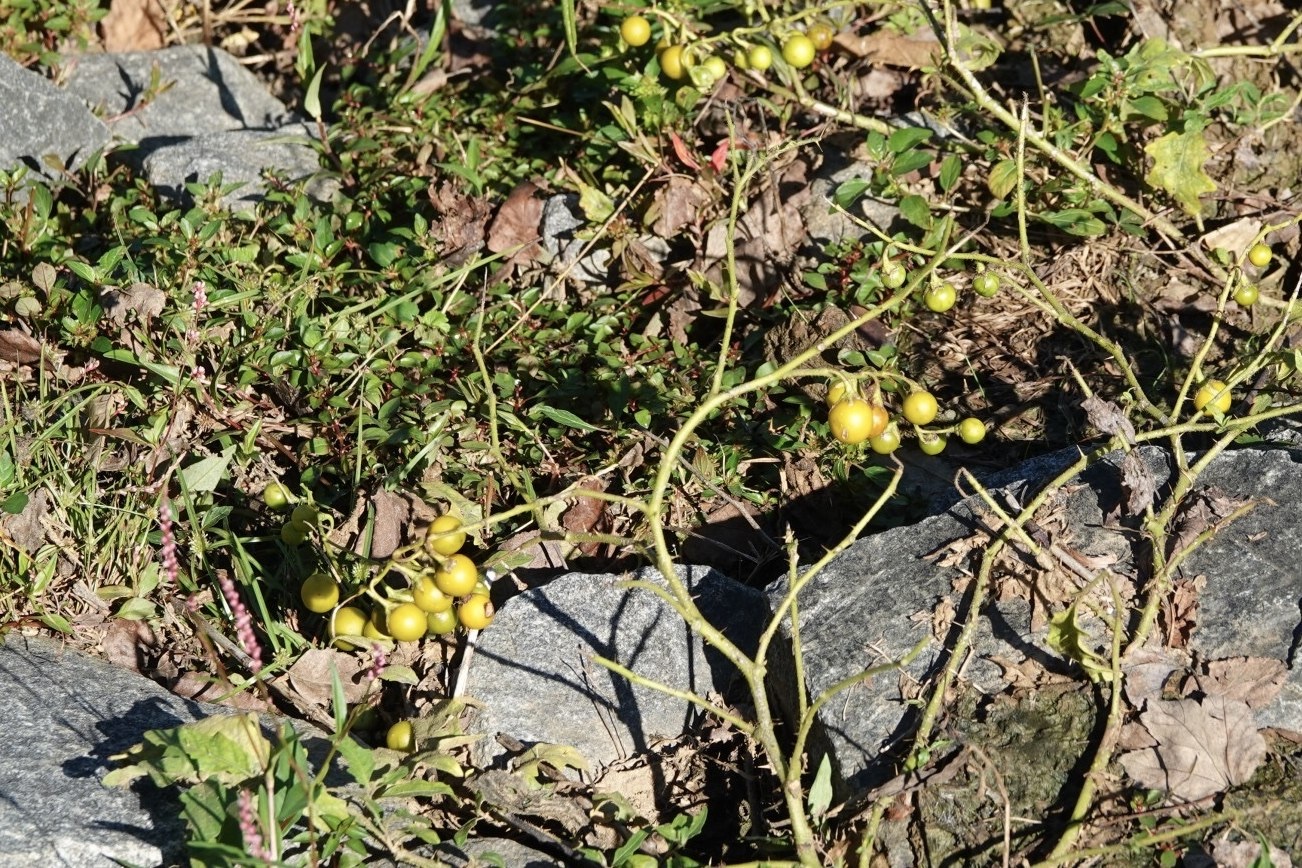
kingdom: Plantae
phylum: Tracheophyta
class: Magnoliopsida
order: Solanales
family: Solanaceae
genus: Solanum
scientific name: Solanum carolinense
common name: Horse-nettle
